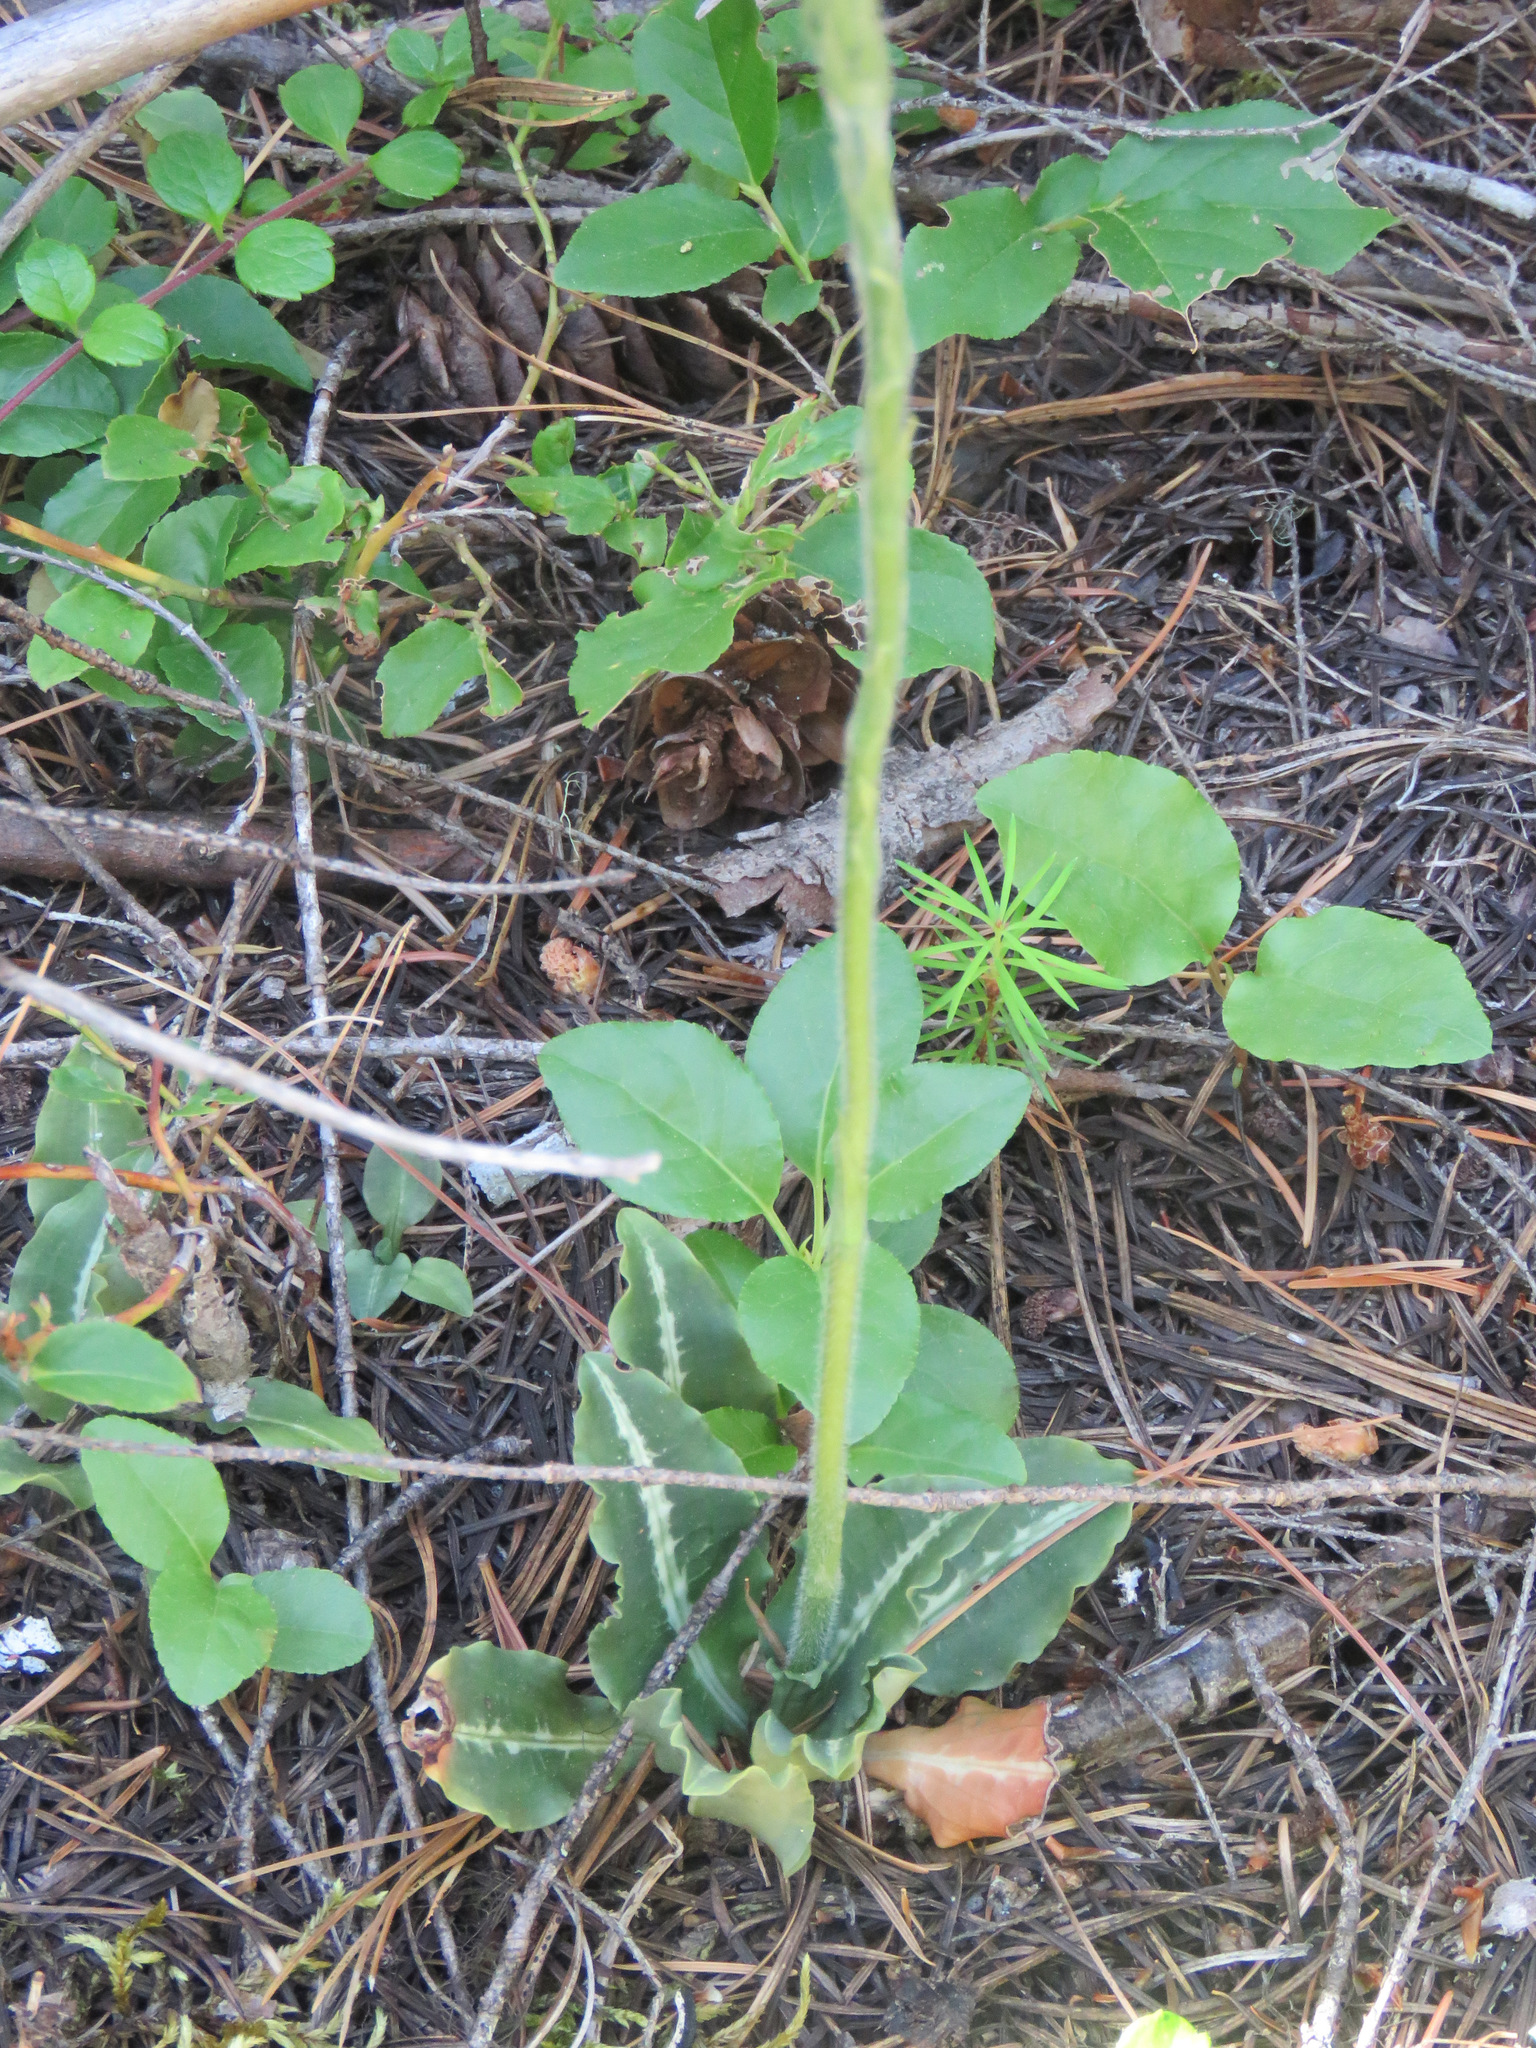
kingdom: Plantae
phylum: Tracheophyta
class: Liliopsida
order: Asparagales
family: Orchidaceae
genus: Goodyera
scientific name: Goodyera oblongifolia
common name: Giant rattlesnake-plantain
